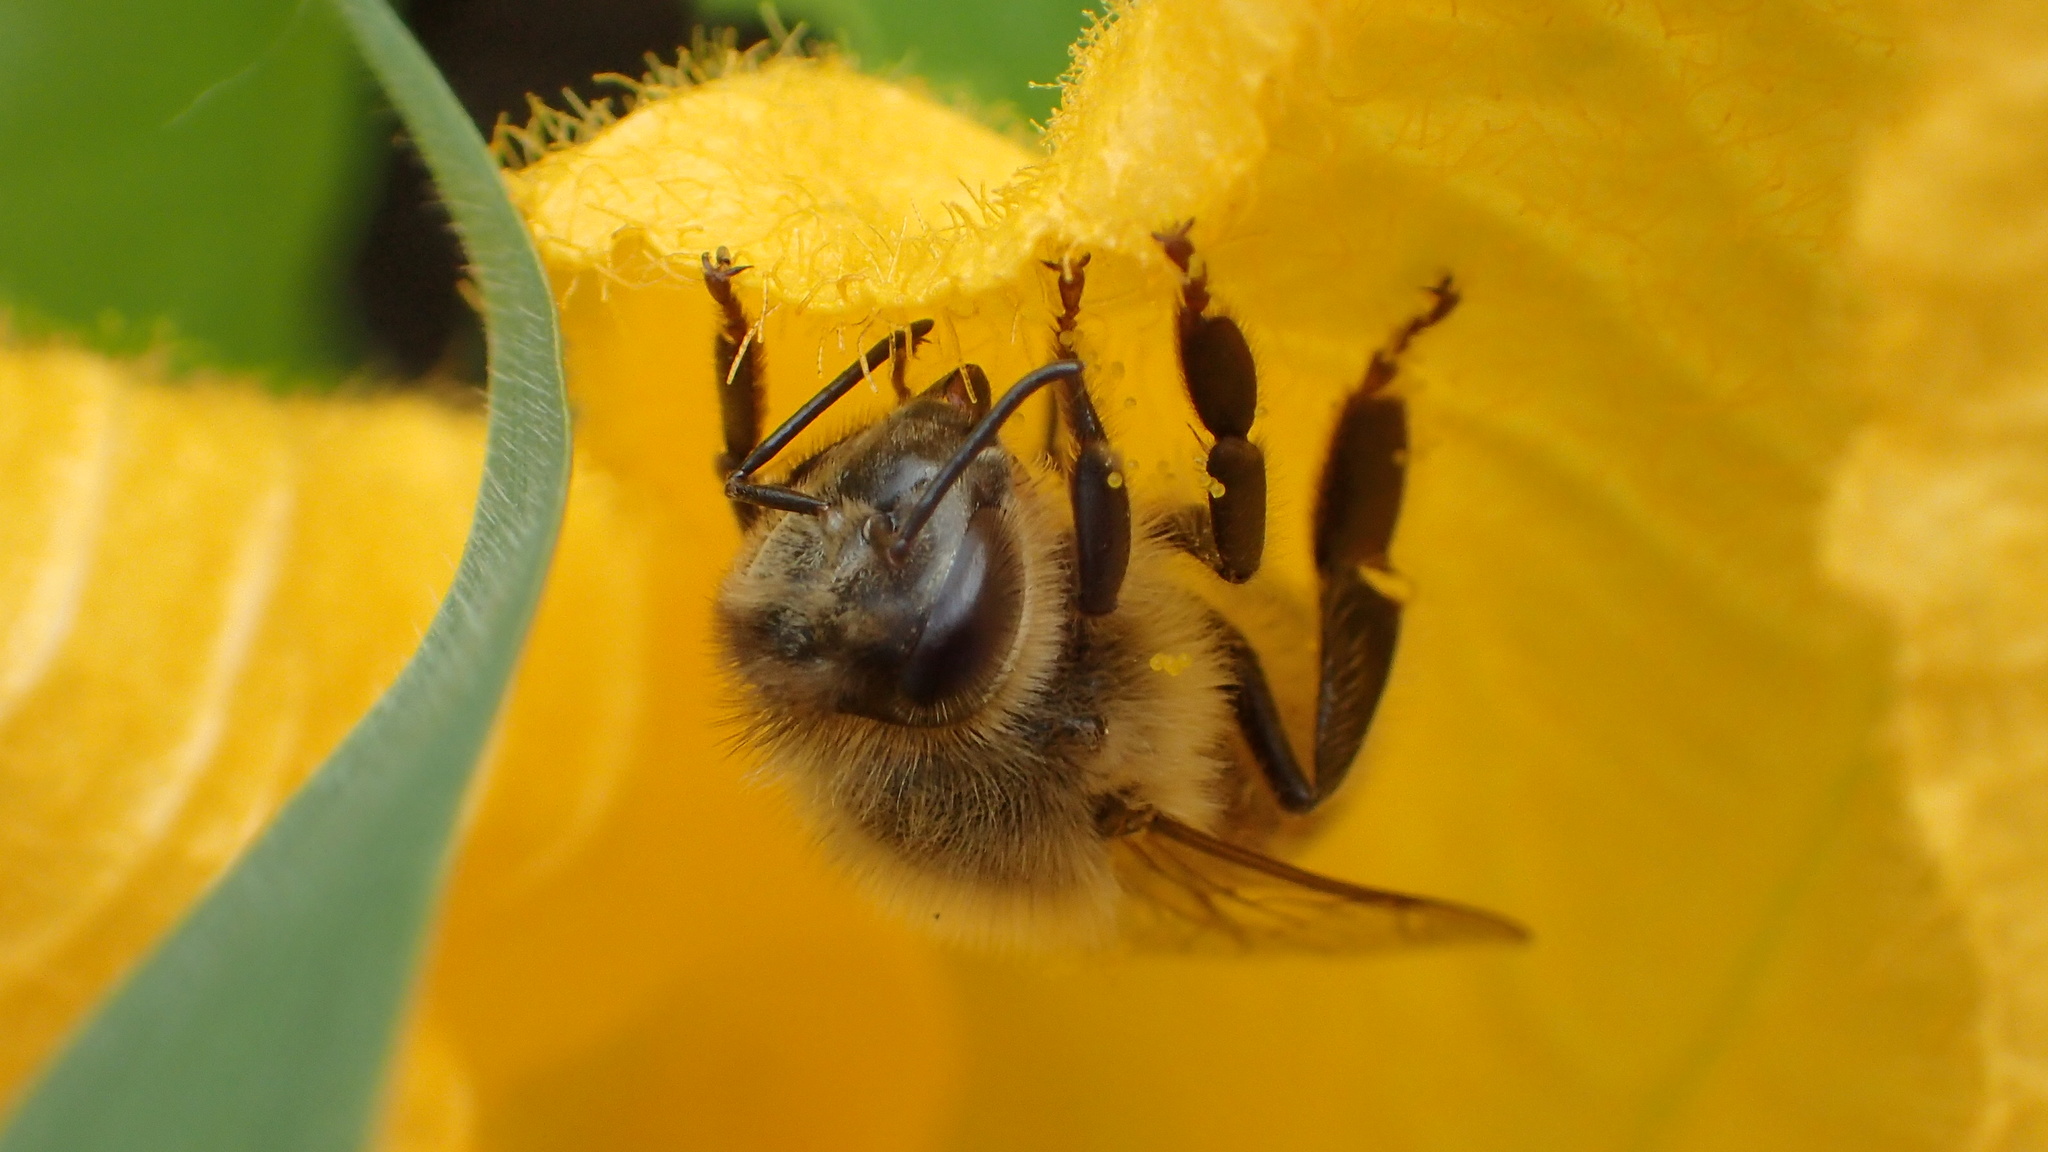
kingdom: Animalia
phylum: Arthropoda
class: Insecta
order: Hymenoptera
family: Apidae
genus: Apis
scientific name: Apis mellifera
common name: Honey bee
